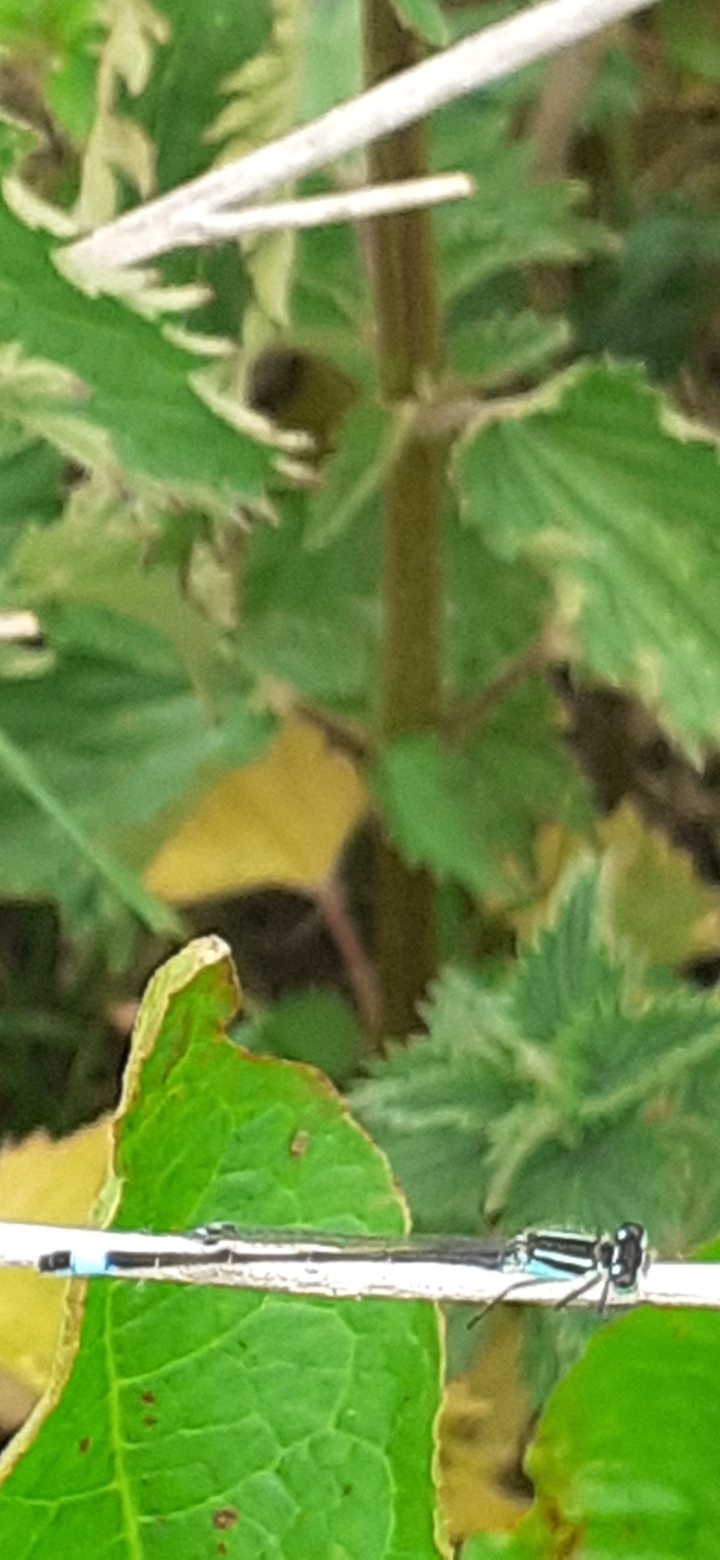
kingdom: Animalia
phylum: Arthropoda
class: Insecta
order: Odonata
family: Coenagrionidae
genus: Ischnura
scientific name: Ischnura elegans
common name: Blue-tailed damselfly
